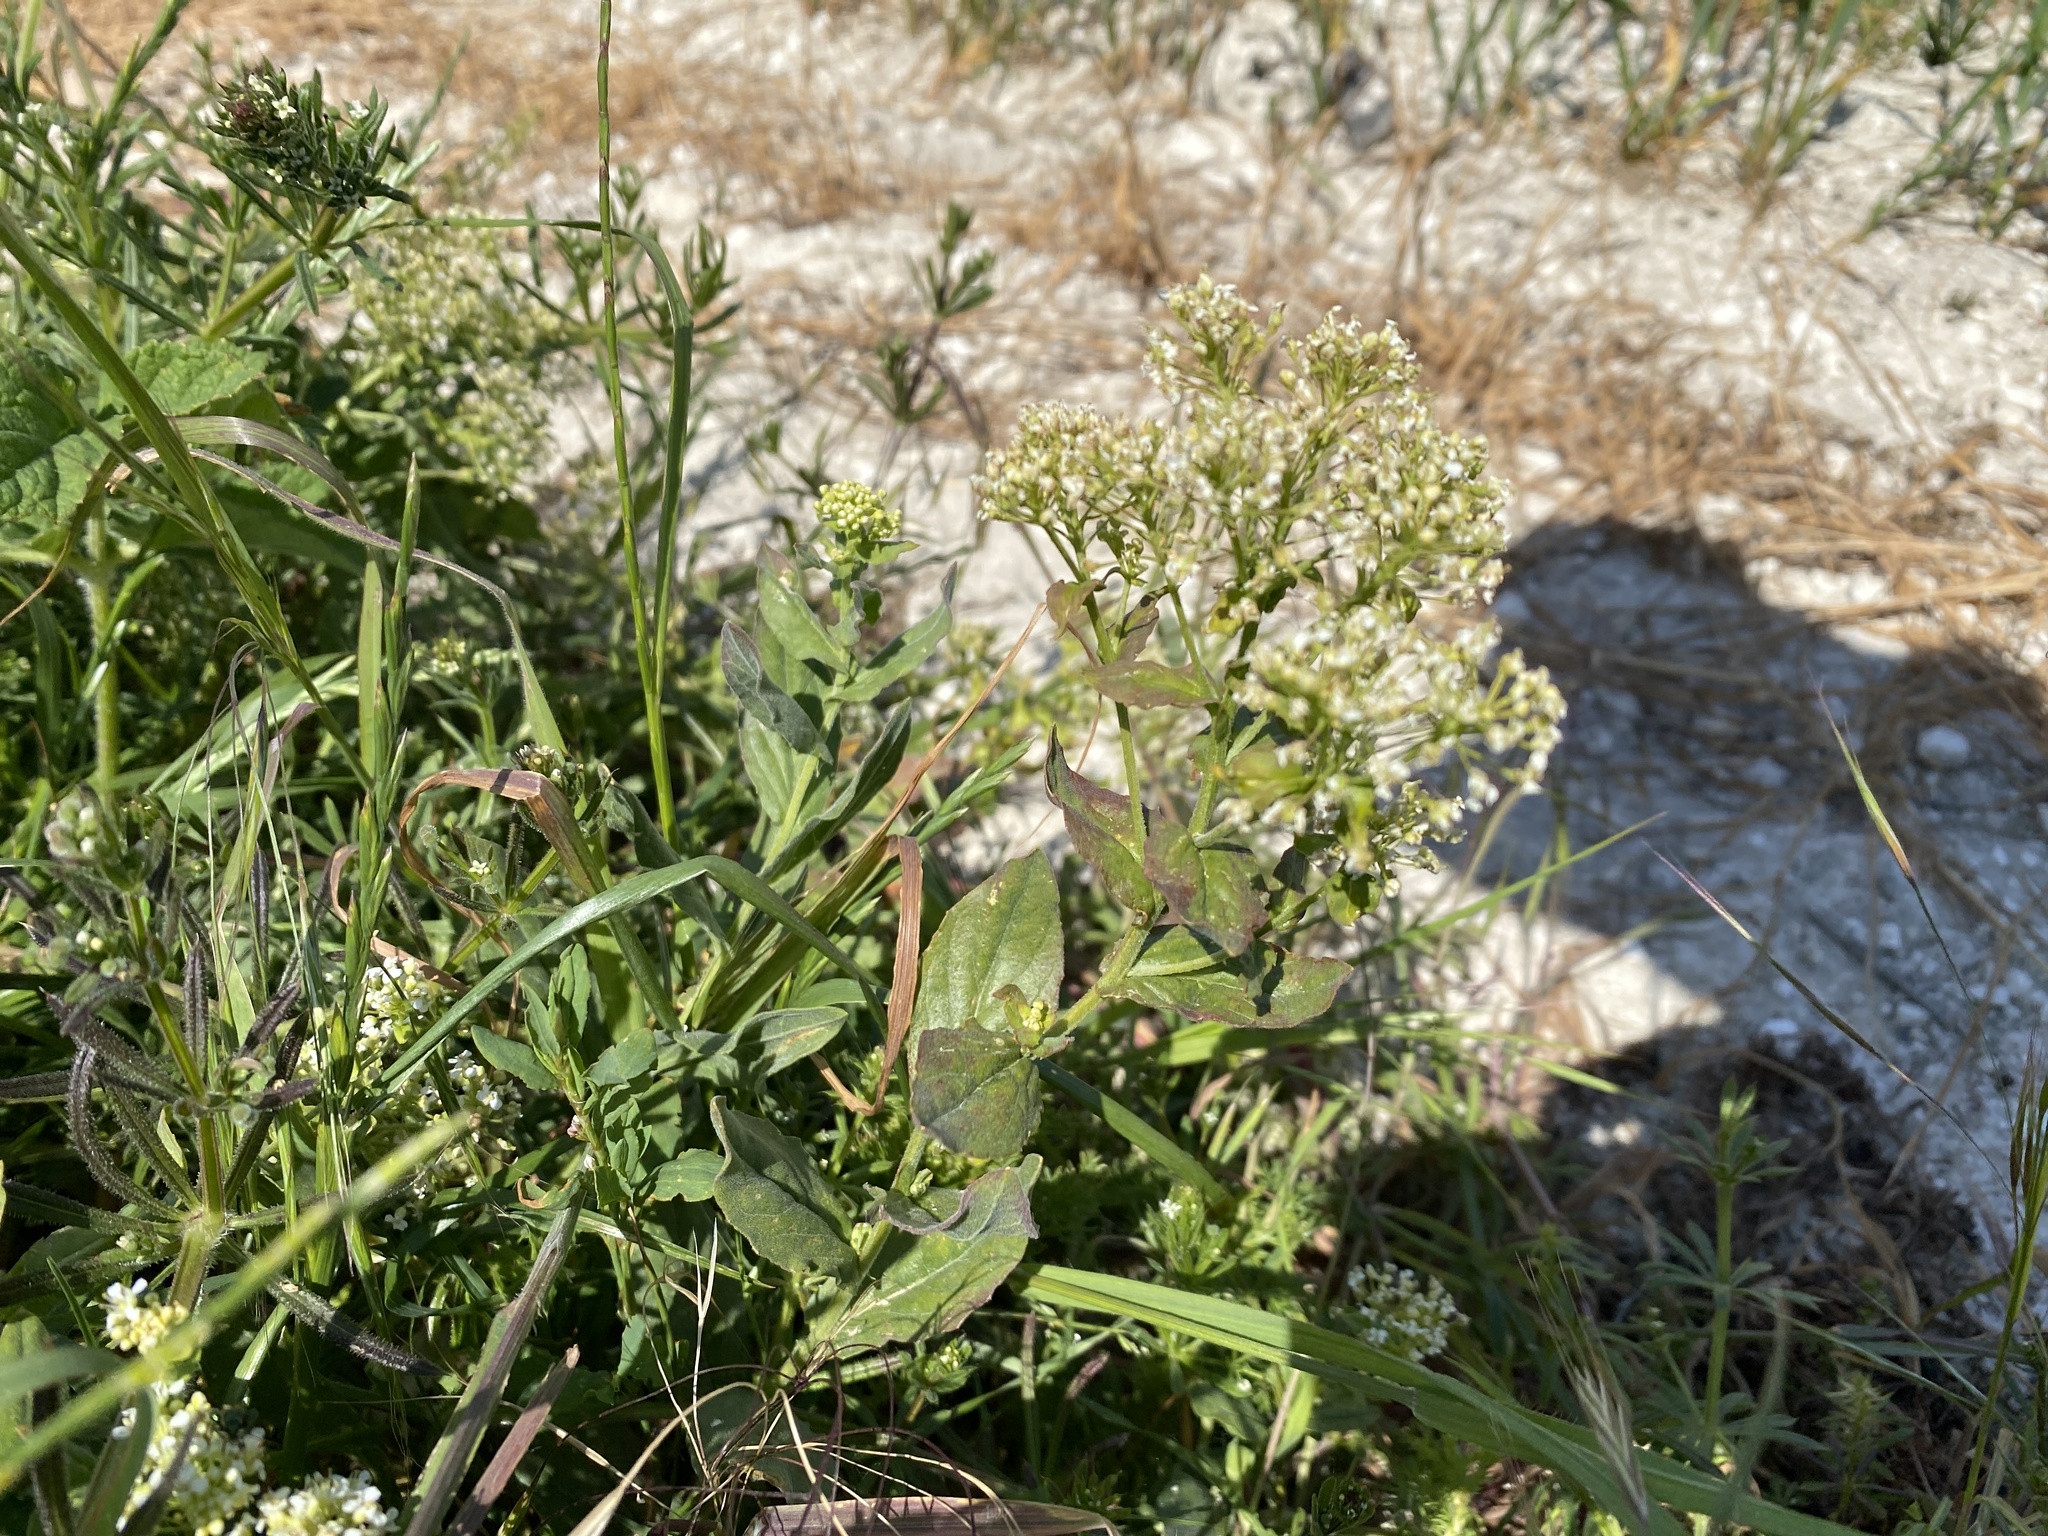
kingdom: Plantae
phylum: Tracheophyta
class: Magnoliopsida
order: Brassicales
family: Brassicaceae
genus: Lepidium
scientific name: Lepidium draba
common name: Hoary cress
